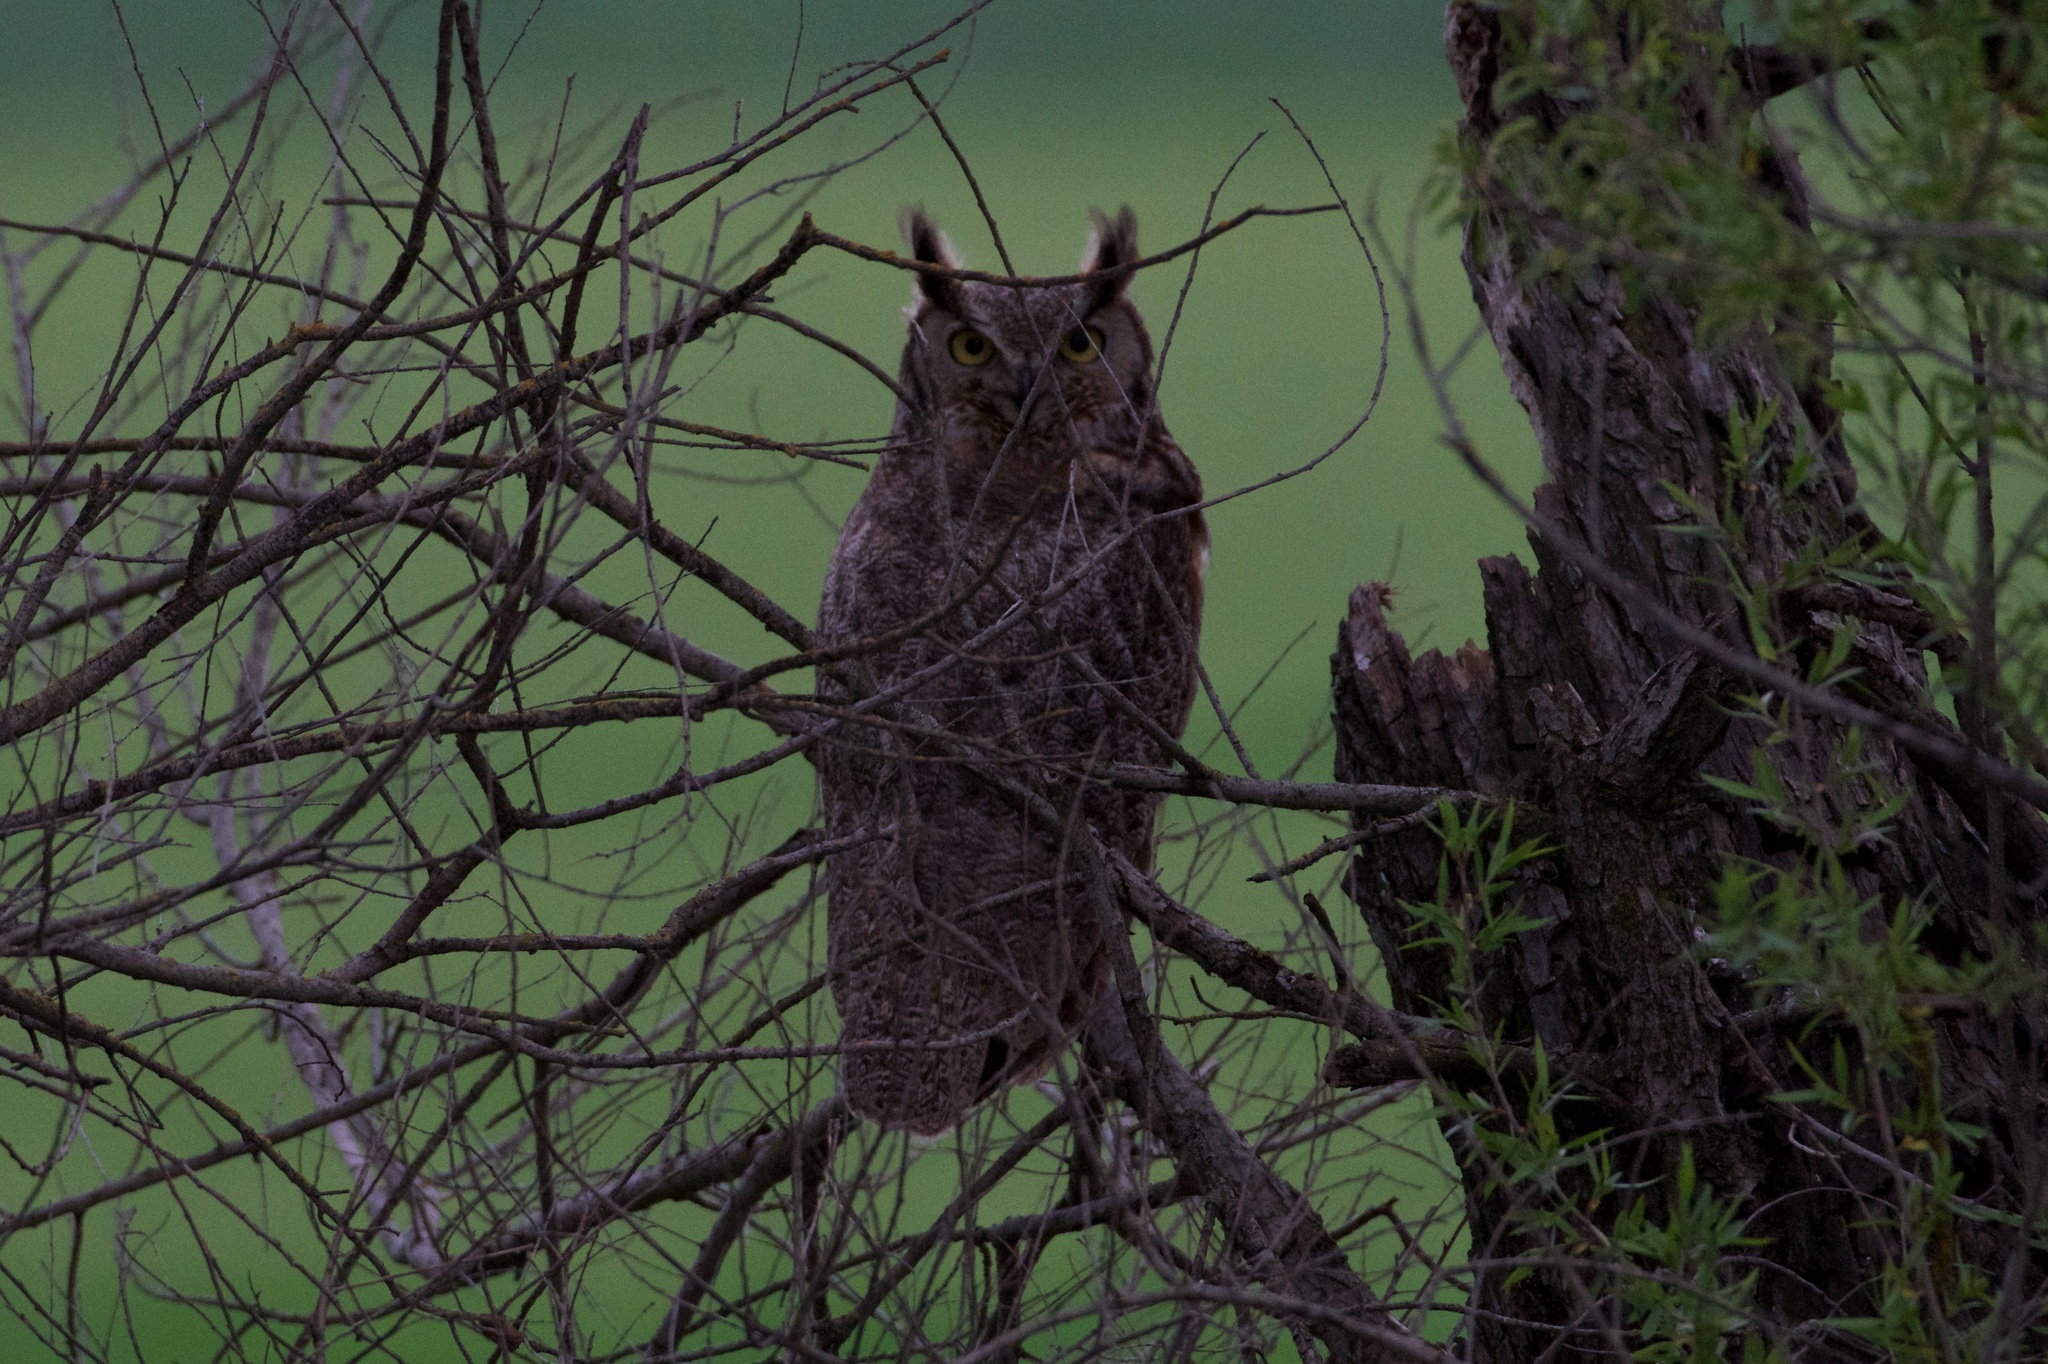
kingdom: Animalia
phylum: Chordata
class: Aves
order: Strigiformes
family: Strigidae
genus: Bubo
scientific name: Bubo virginianus
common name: Great horned owl
